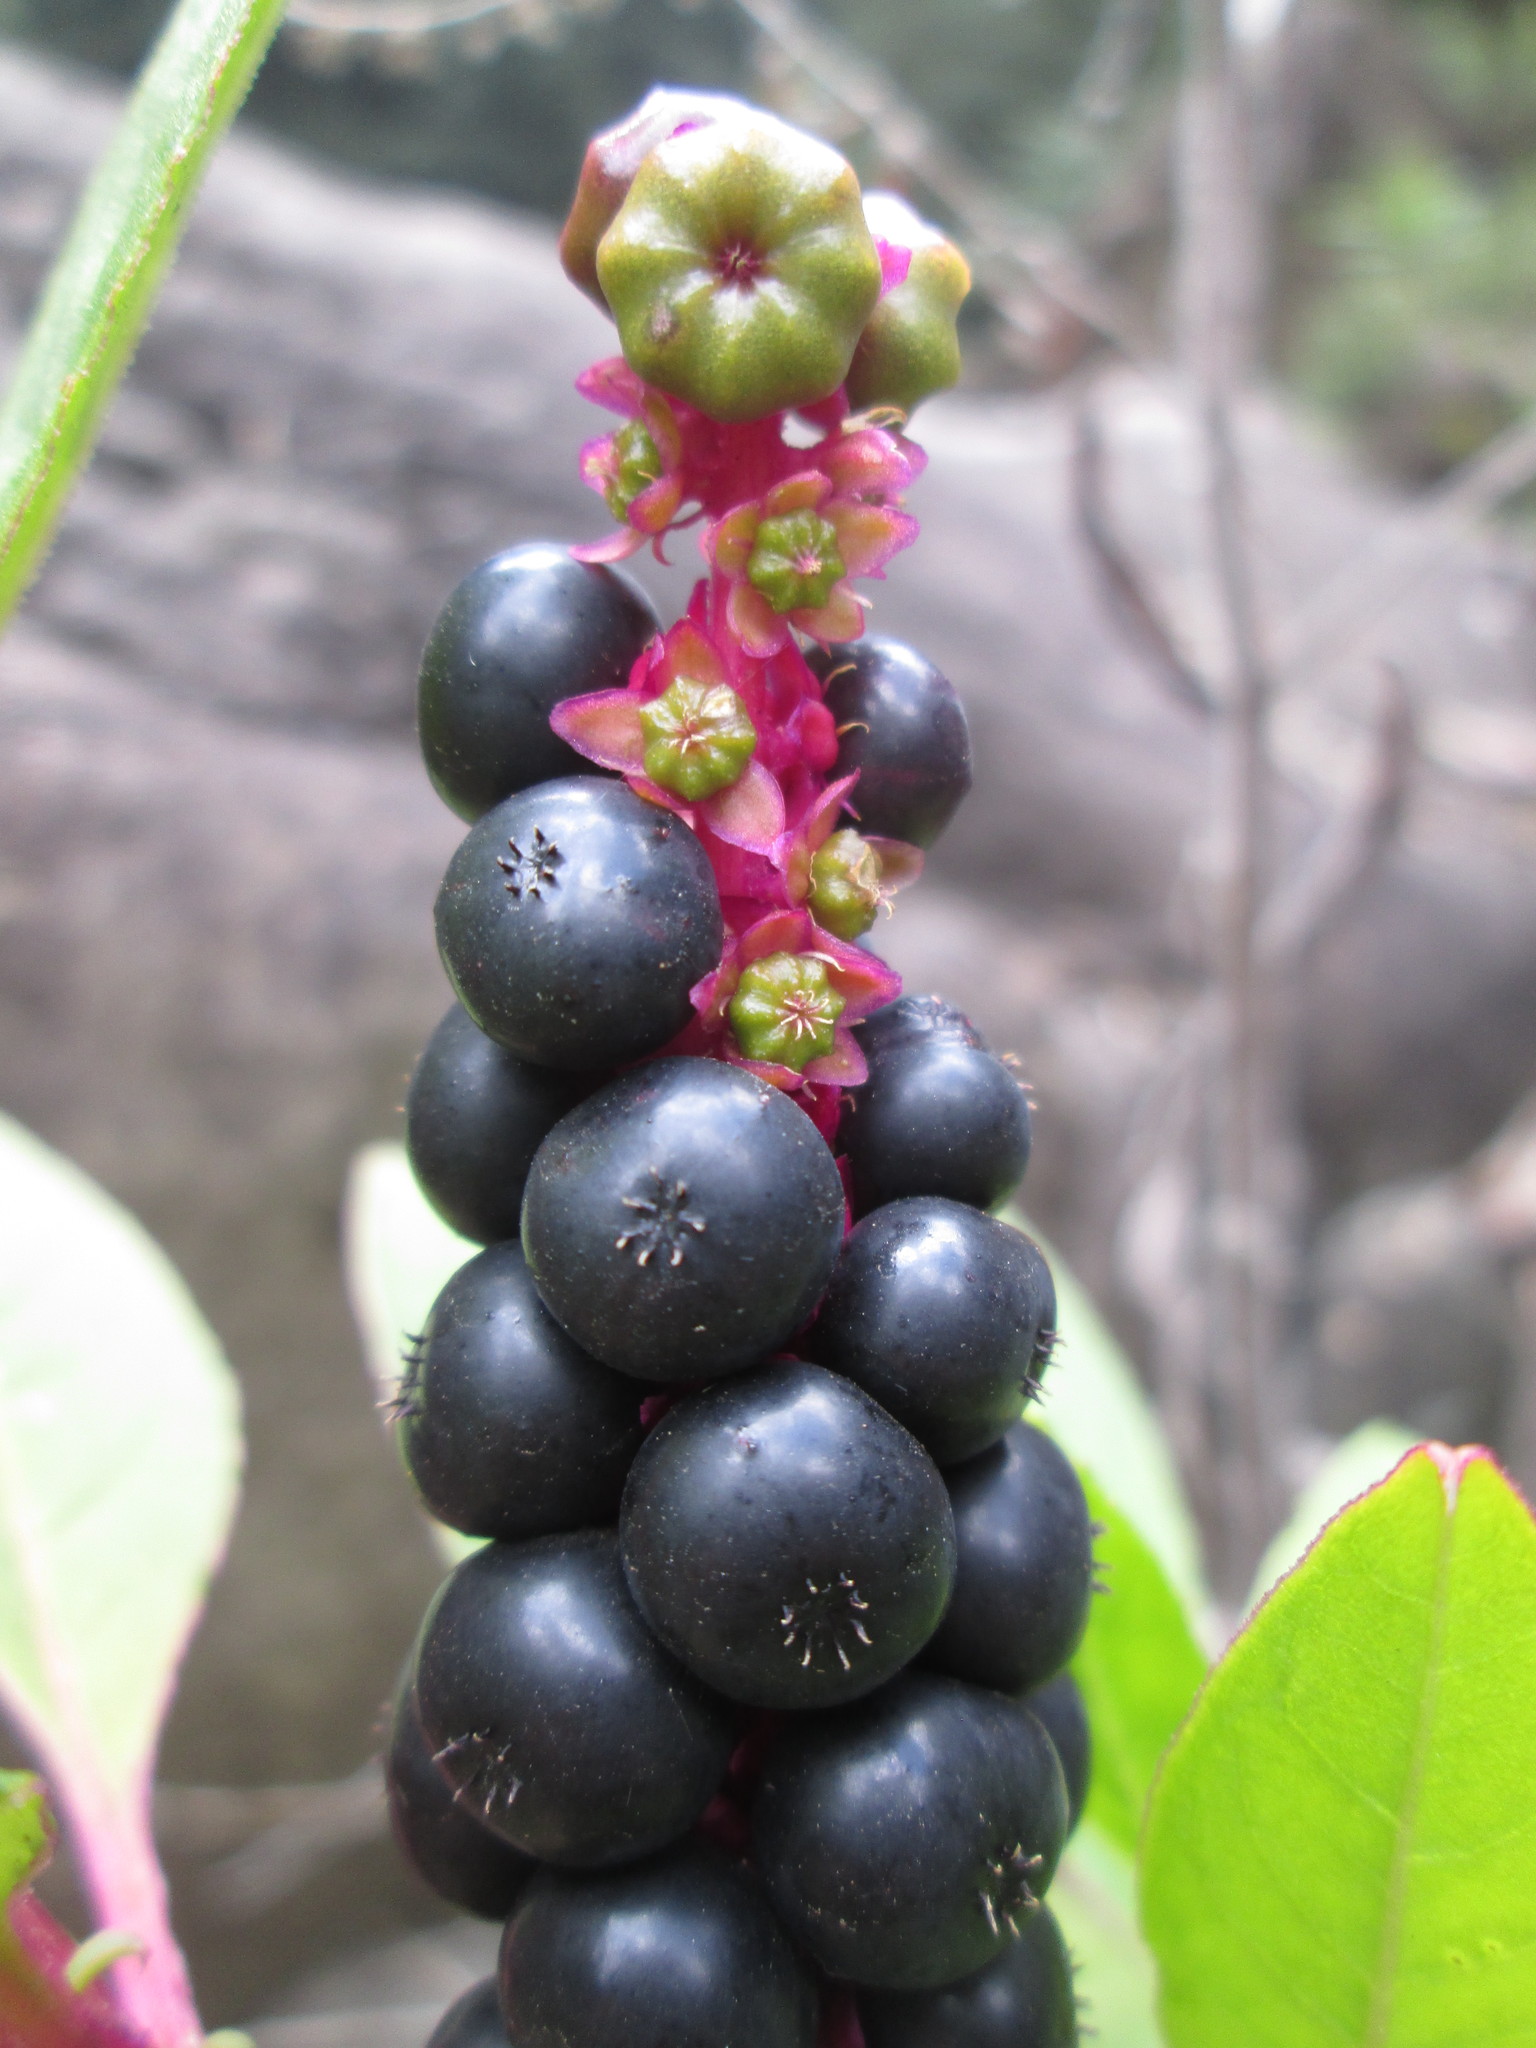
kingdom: Plantae
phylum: Tracheophyta
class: Magnoliopsida
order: Caryophyllales
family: Phytolaccaceae
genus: Phytolacca
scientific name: Phytolacca icosandra
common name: Button pokeweed
